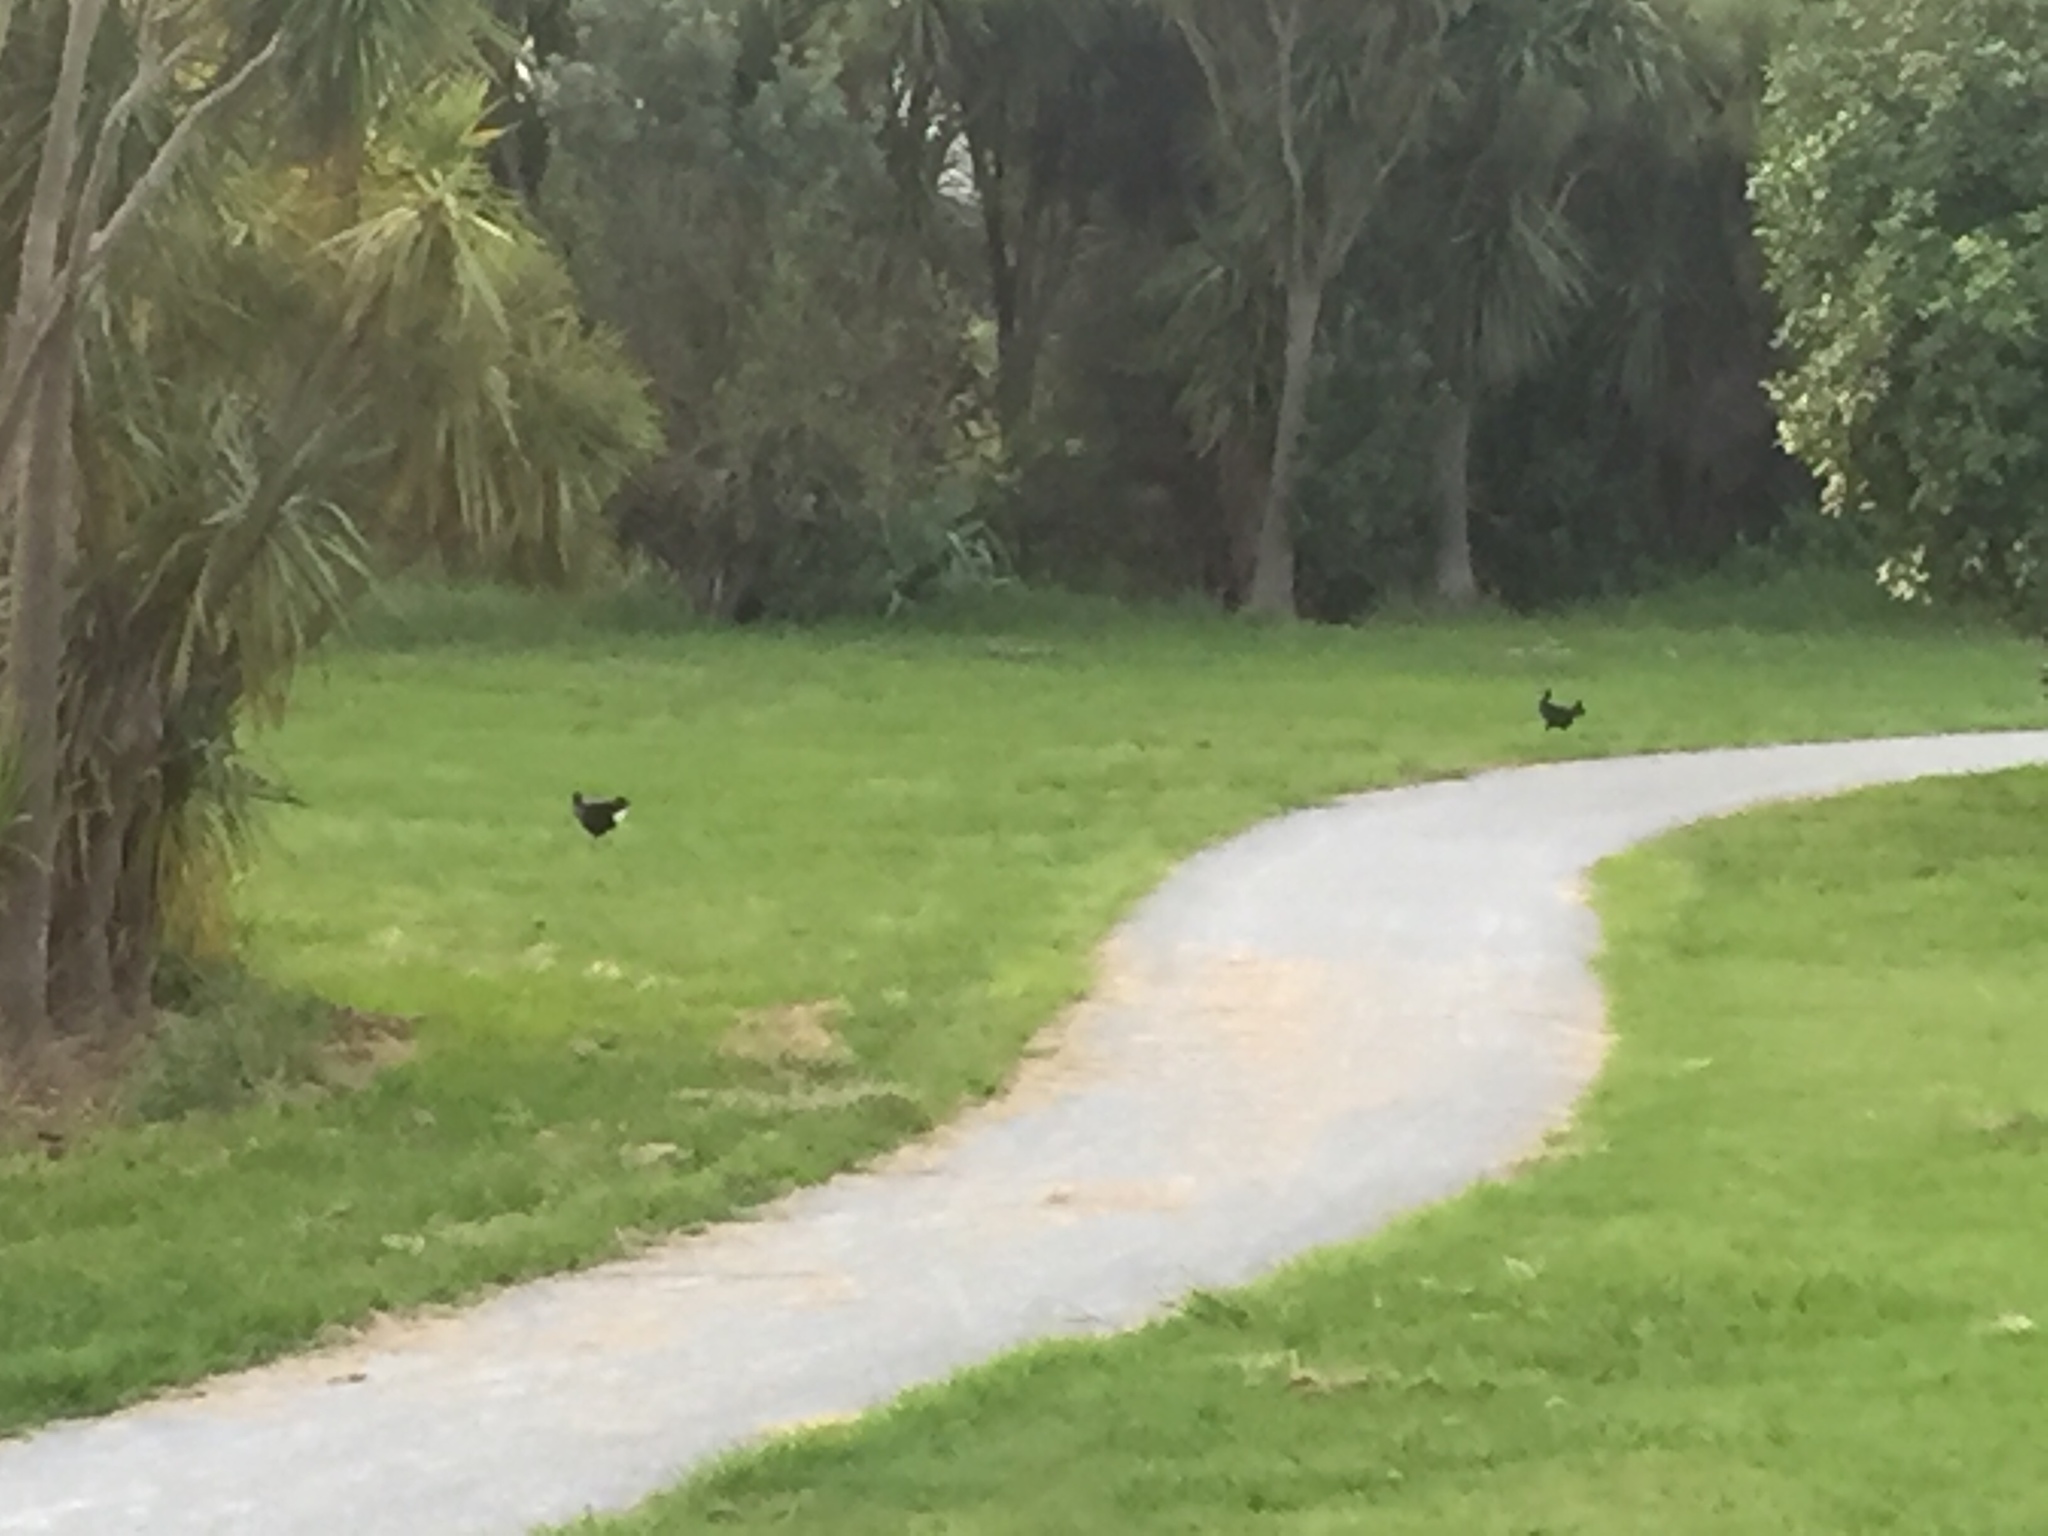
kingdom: Animalia
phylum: Chordata
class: Aves
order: Gruiformes
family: Rallidae
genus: Porphyrio
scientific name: Porphyrio melanotus
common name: Australasian swamphen
